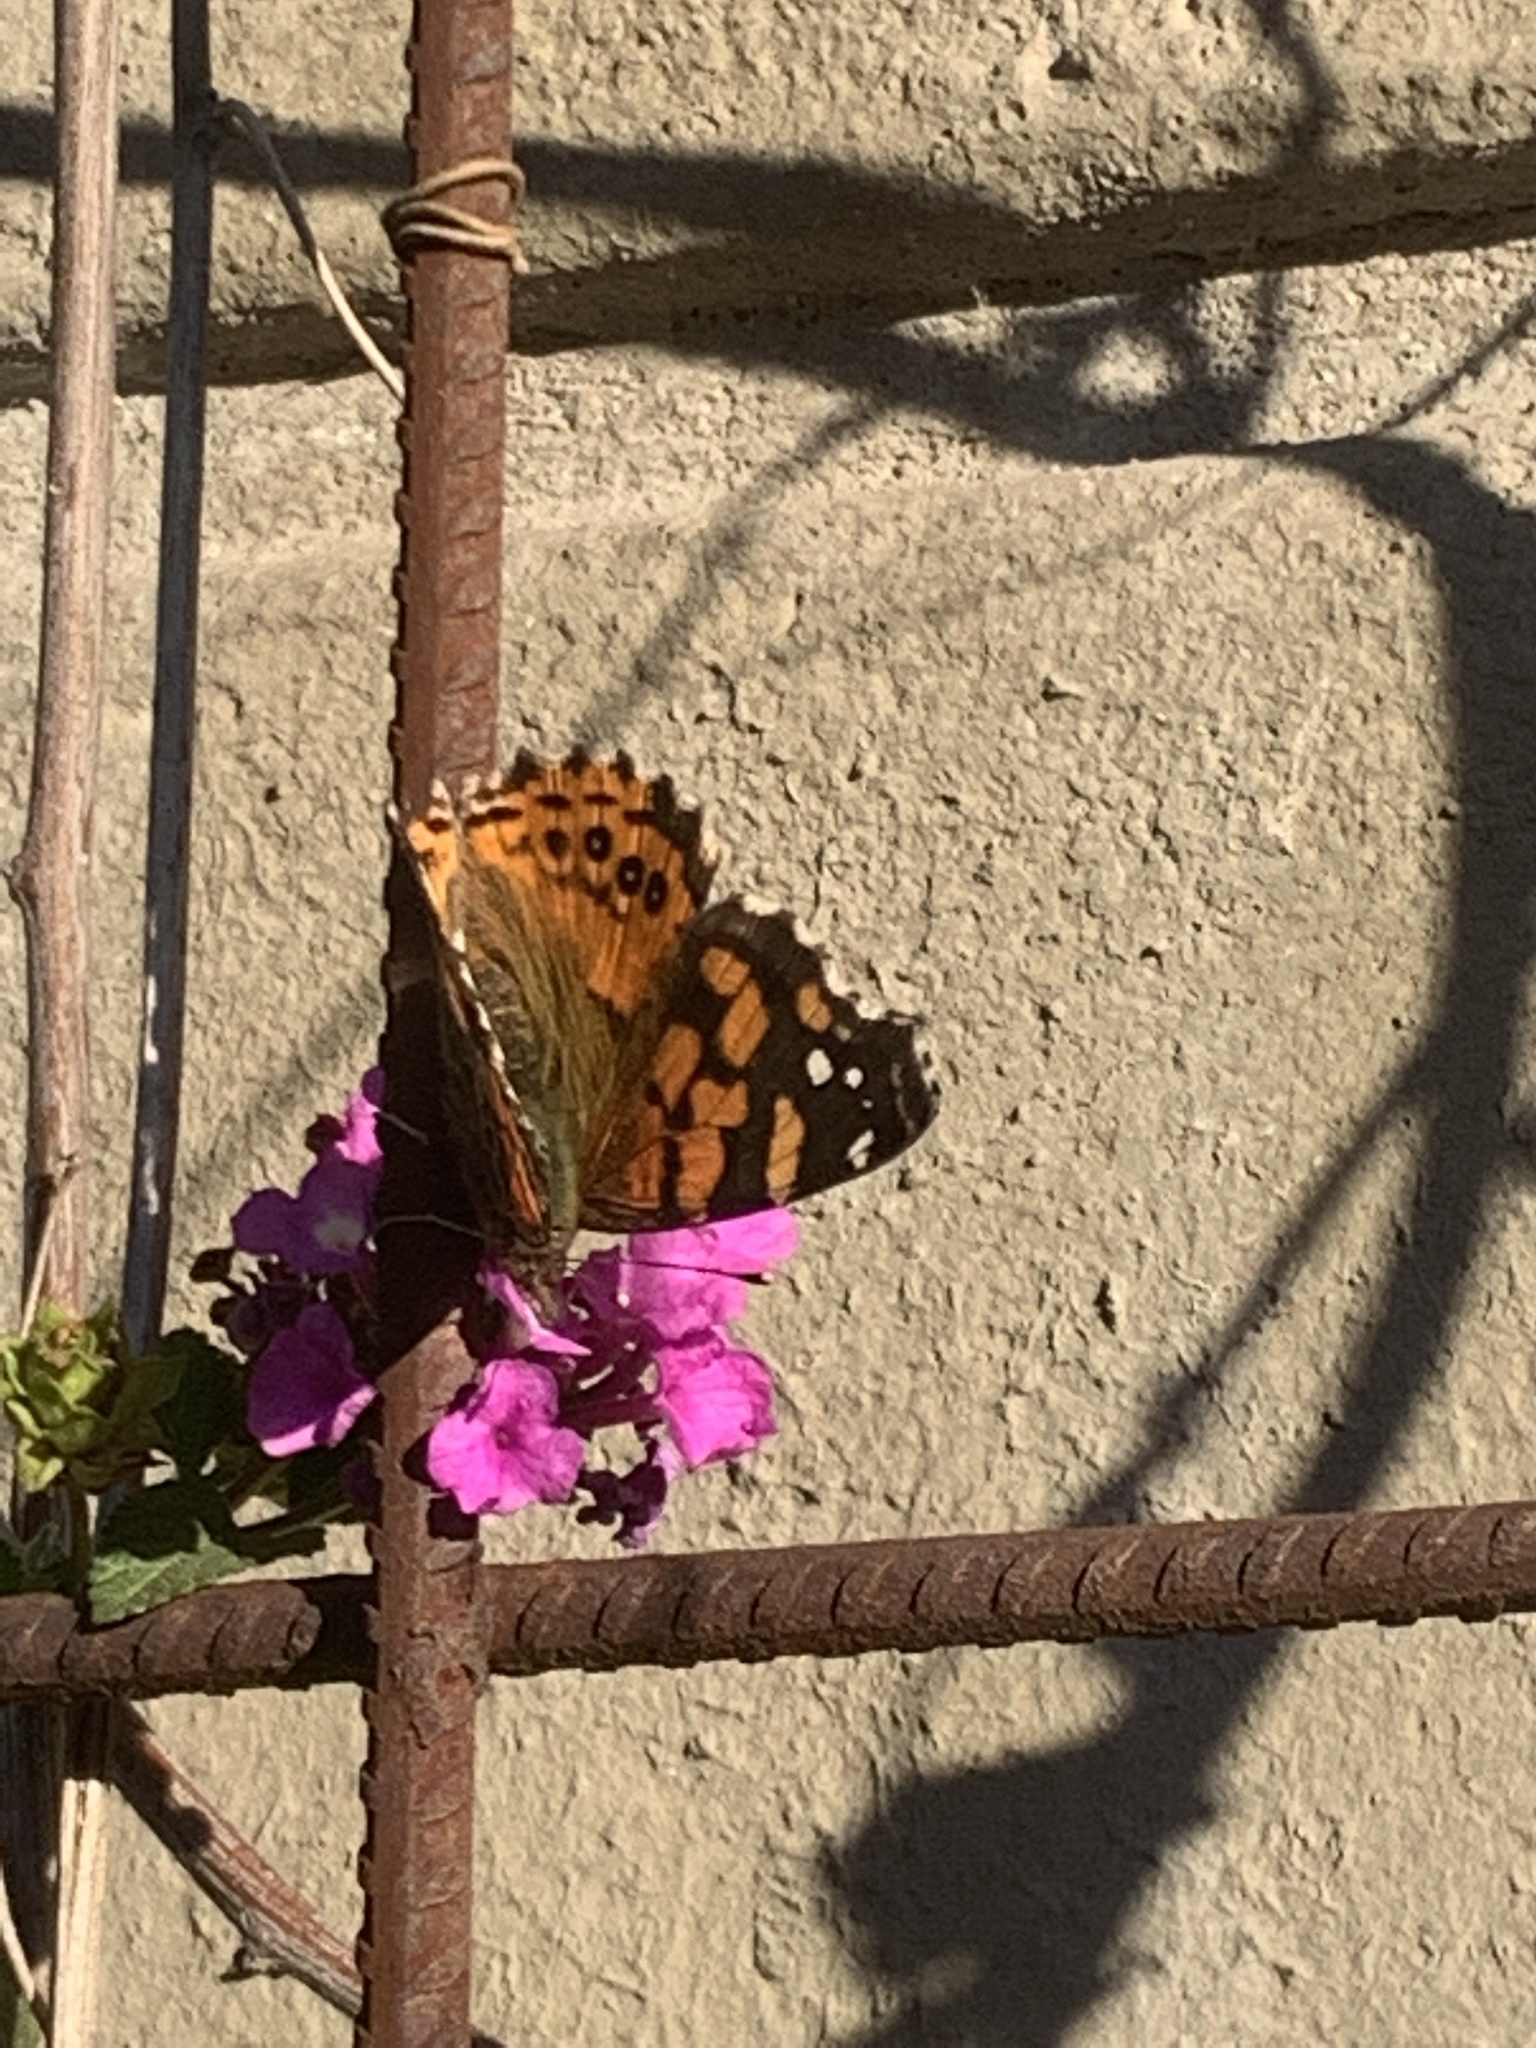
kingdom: Animalia
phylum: Arthropoda
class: Insecta
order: Lepidoptera
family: Nymphalidae
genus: Vanessa
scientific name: Vanessa carye
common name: Subtropical lady
